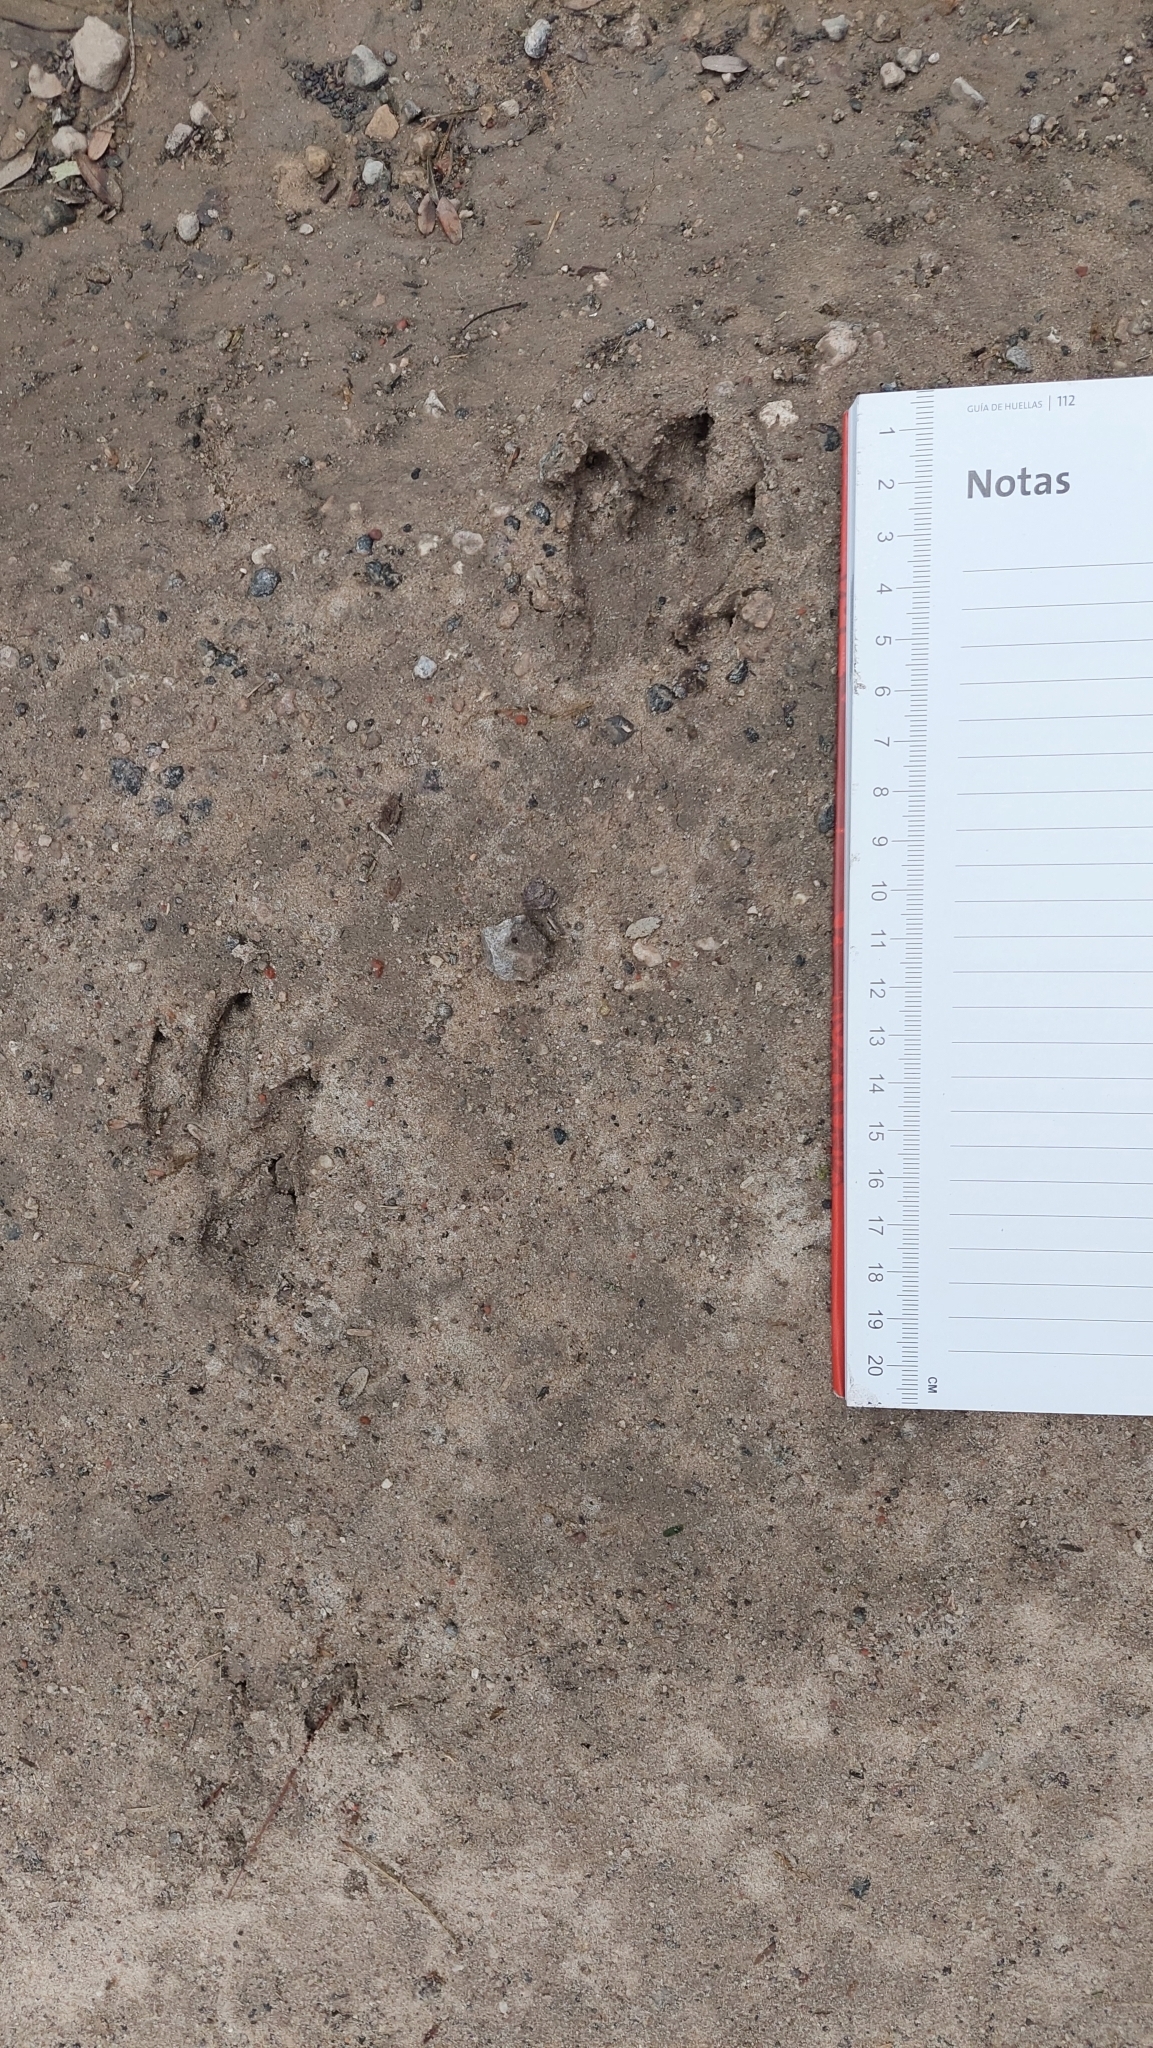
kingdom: Animalia
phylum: Chordata
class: Mammalia
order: Cingulata
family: Dasypodidae
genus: Dasypus
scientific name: Dasypus novemcinctus
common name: Nine-banded armadillo
